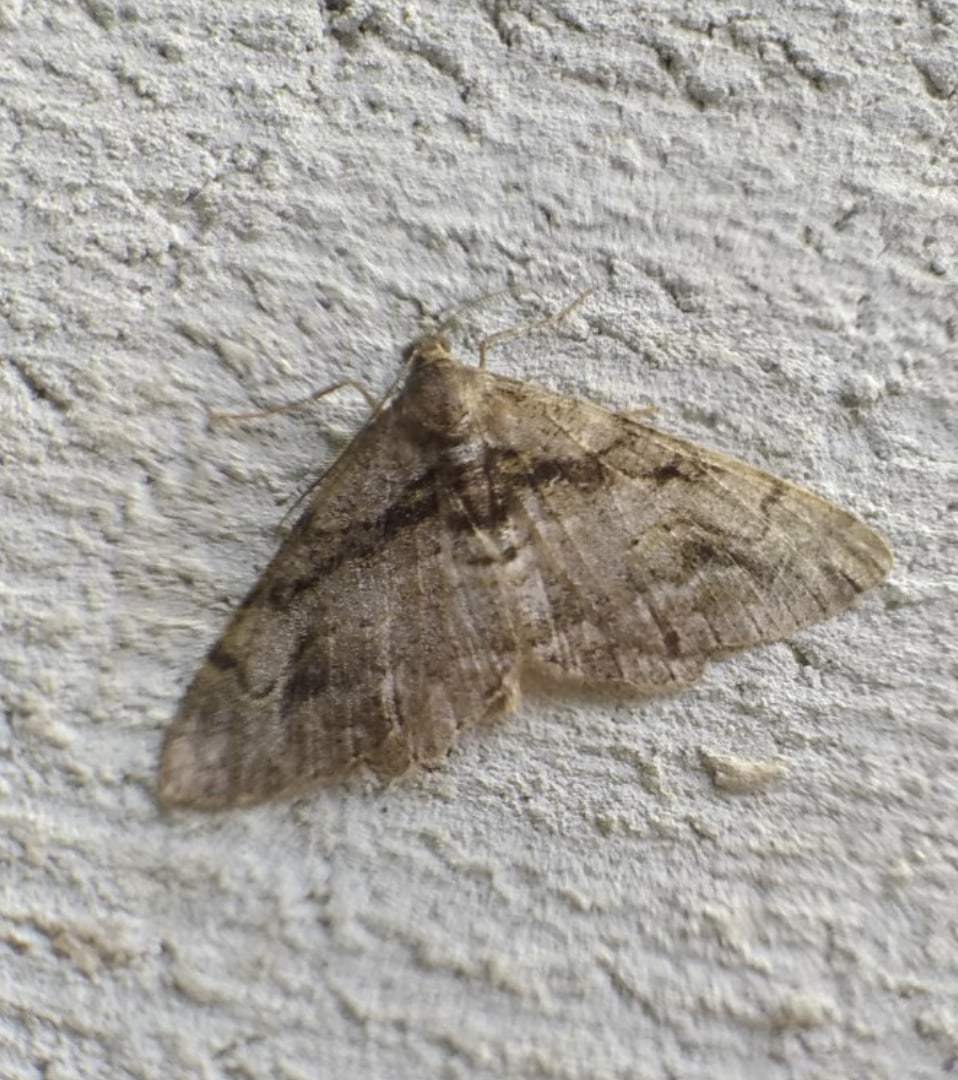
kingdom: Animalia
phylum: Arthropoda
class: Insecta
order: Lepidoptera
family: Geometridae
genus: Alcis
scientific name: Alcis deversata
